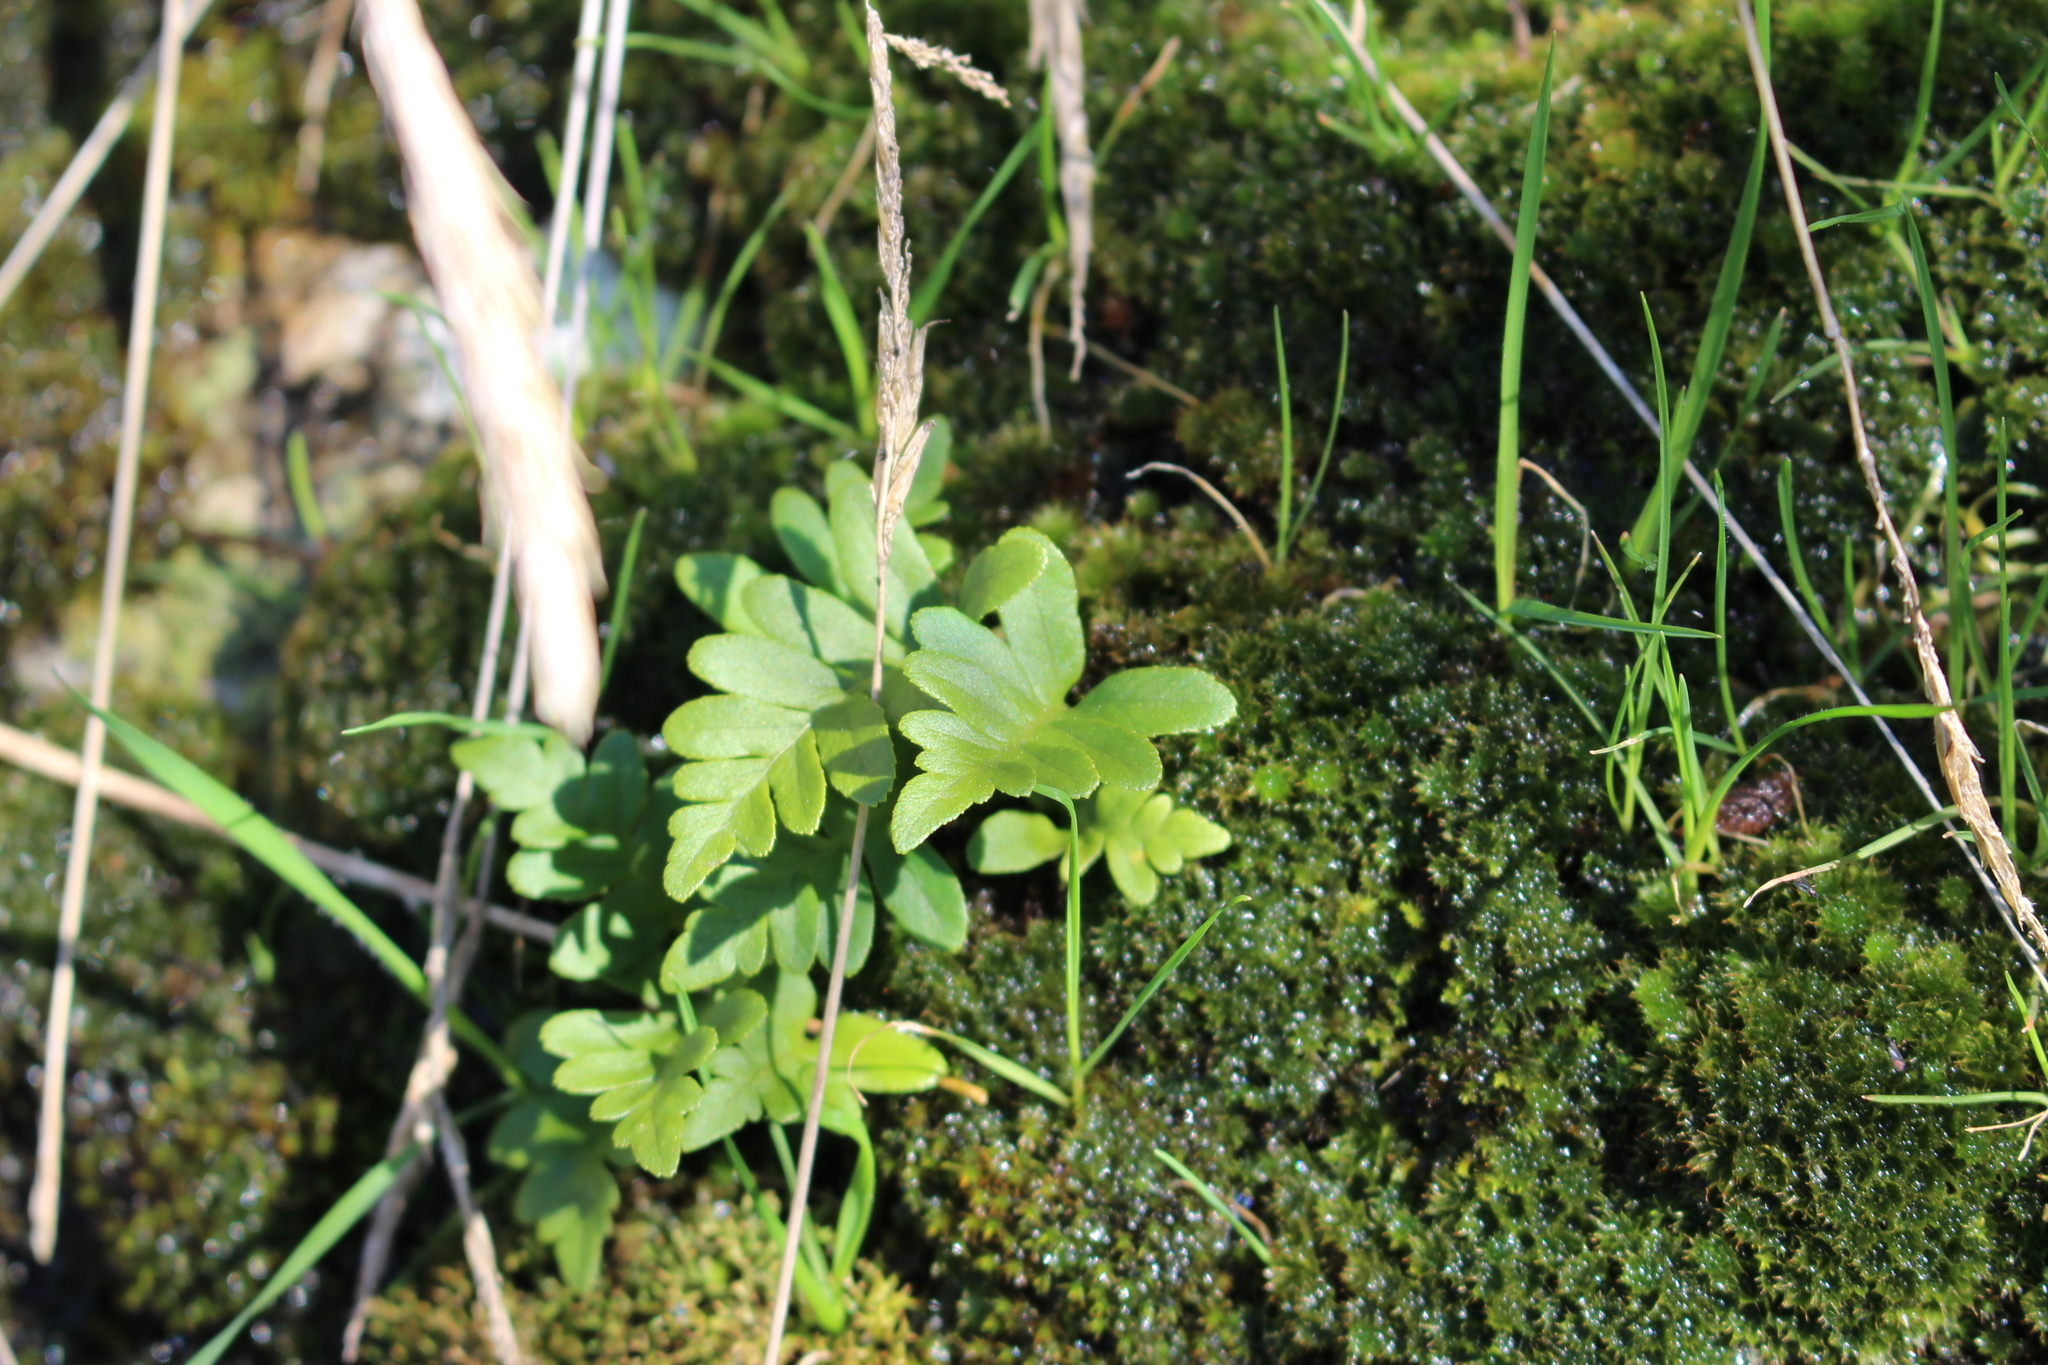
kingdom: Plantae
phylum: Tracheophyta
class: Polypodiopsida
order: Polypodiales
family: Polypodiaceae
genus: Polypodium
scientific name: Polypodium vulgare
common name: Common polypody
